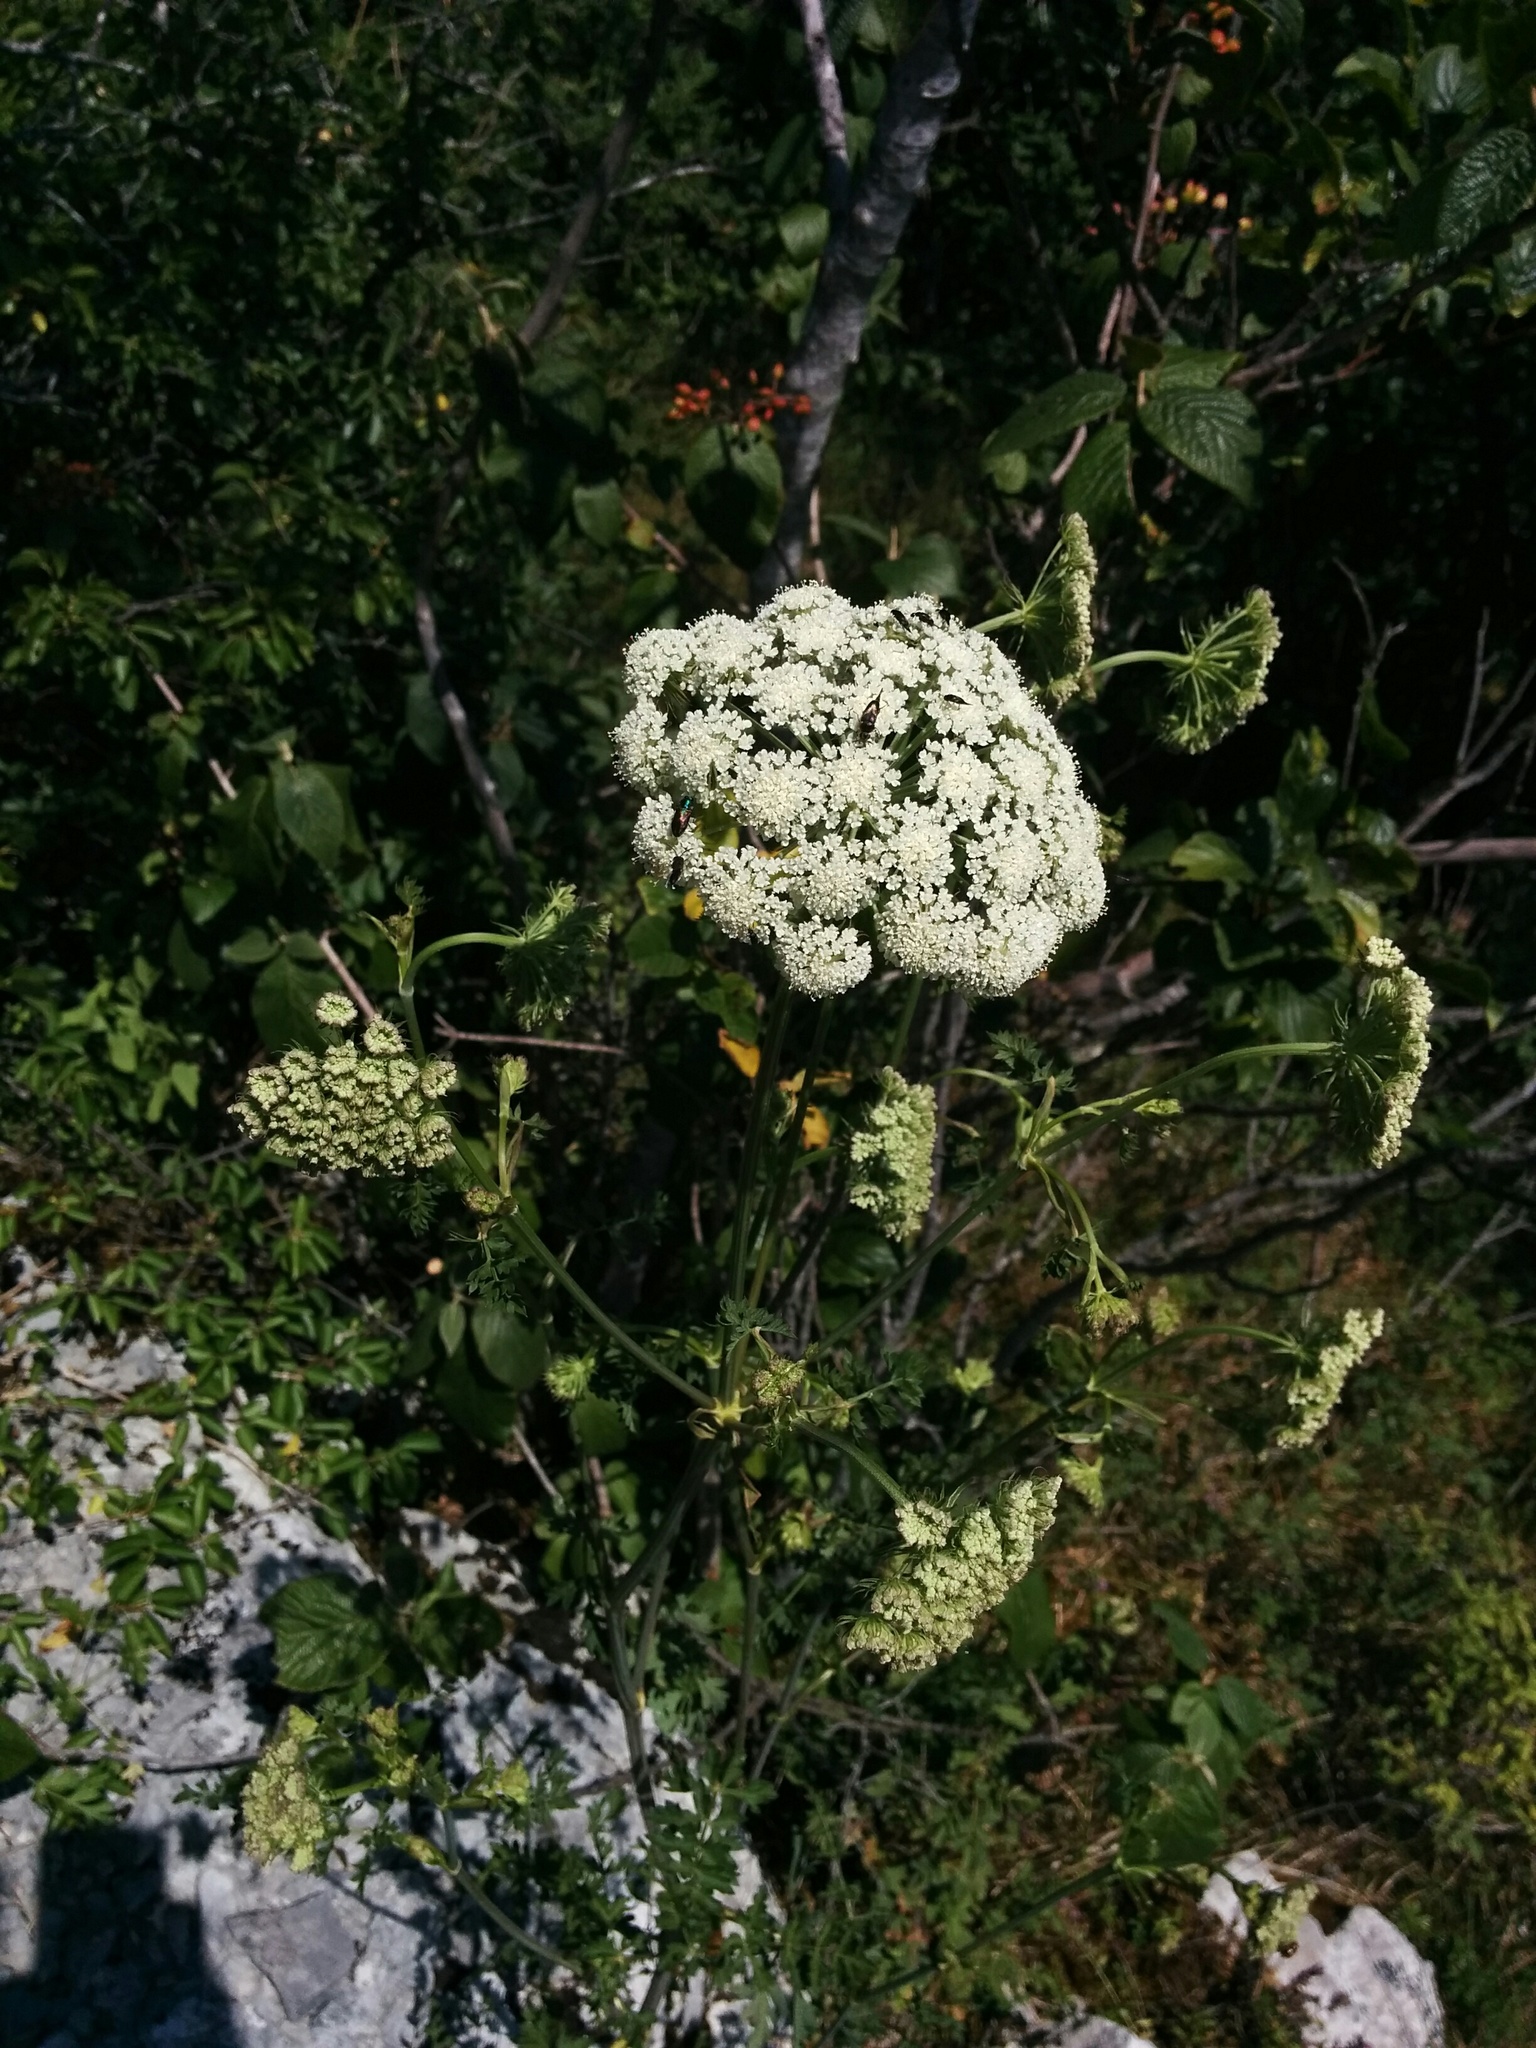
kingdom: Plantae
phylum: Tracheophyta
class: Magnoliopsida
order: Apiales
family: Apiaceae
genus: Daucus
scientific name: Daucus carota
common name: Wild carrot
